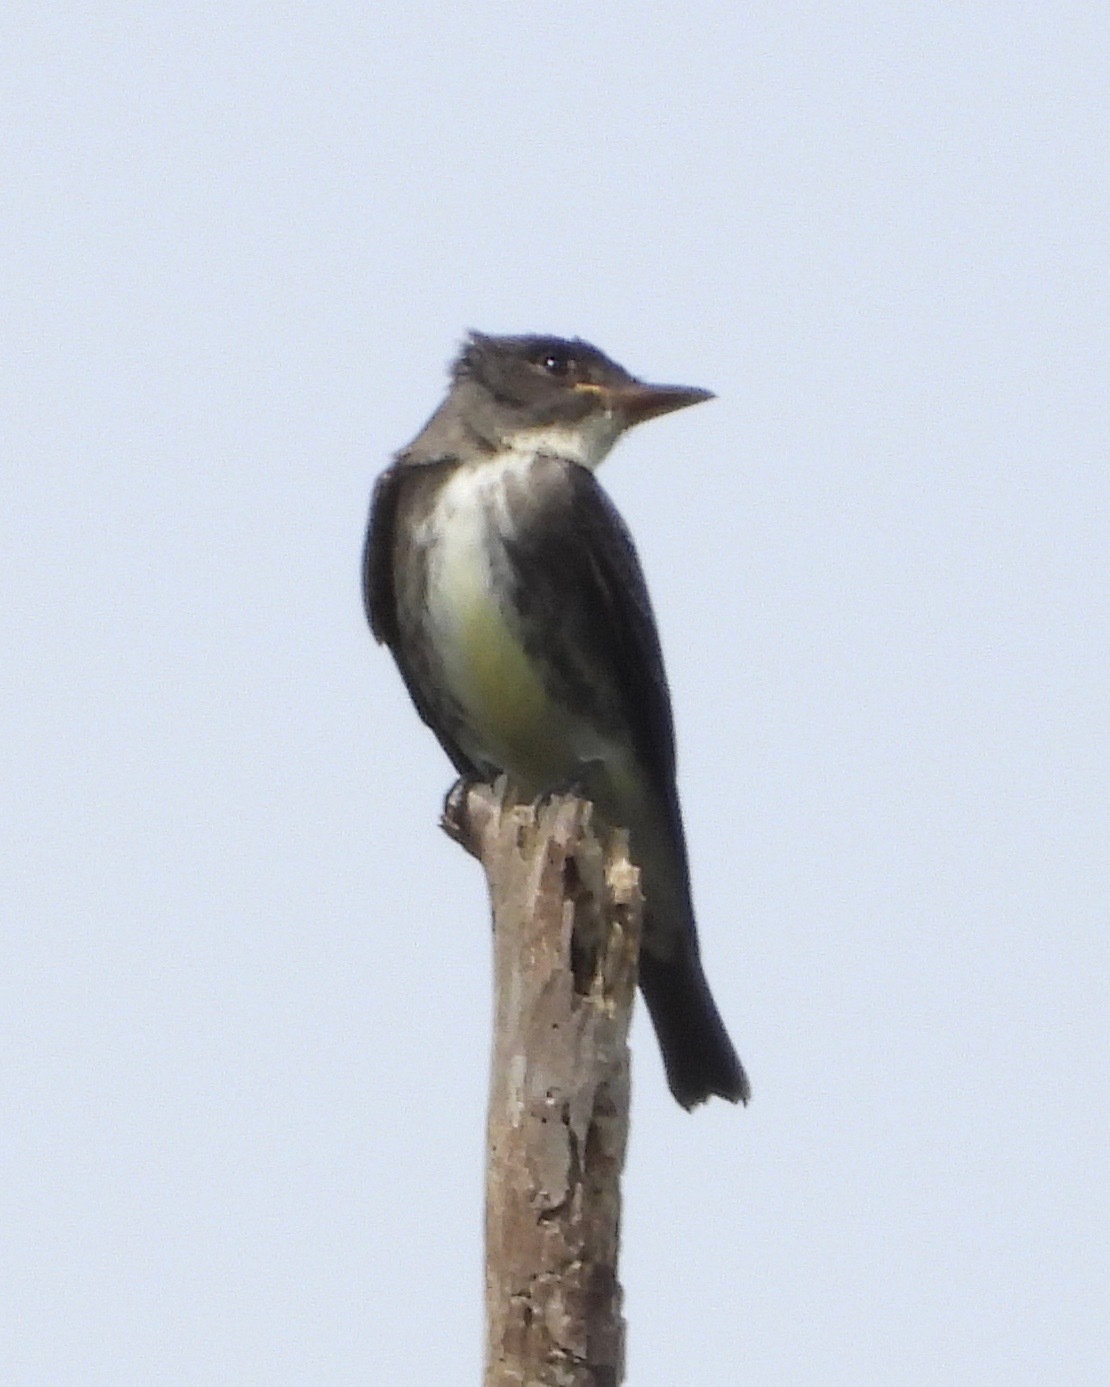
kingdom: Animalia
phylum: Chordata
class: Aves
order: Passeriformes
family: Tyrannidae
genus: Contopus
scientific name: Contopus cooperi
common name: Olive-sided flycatcher
